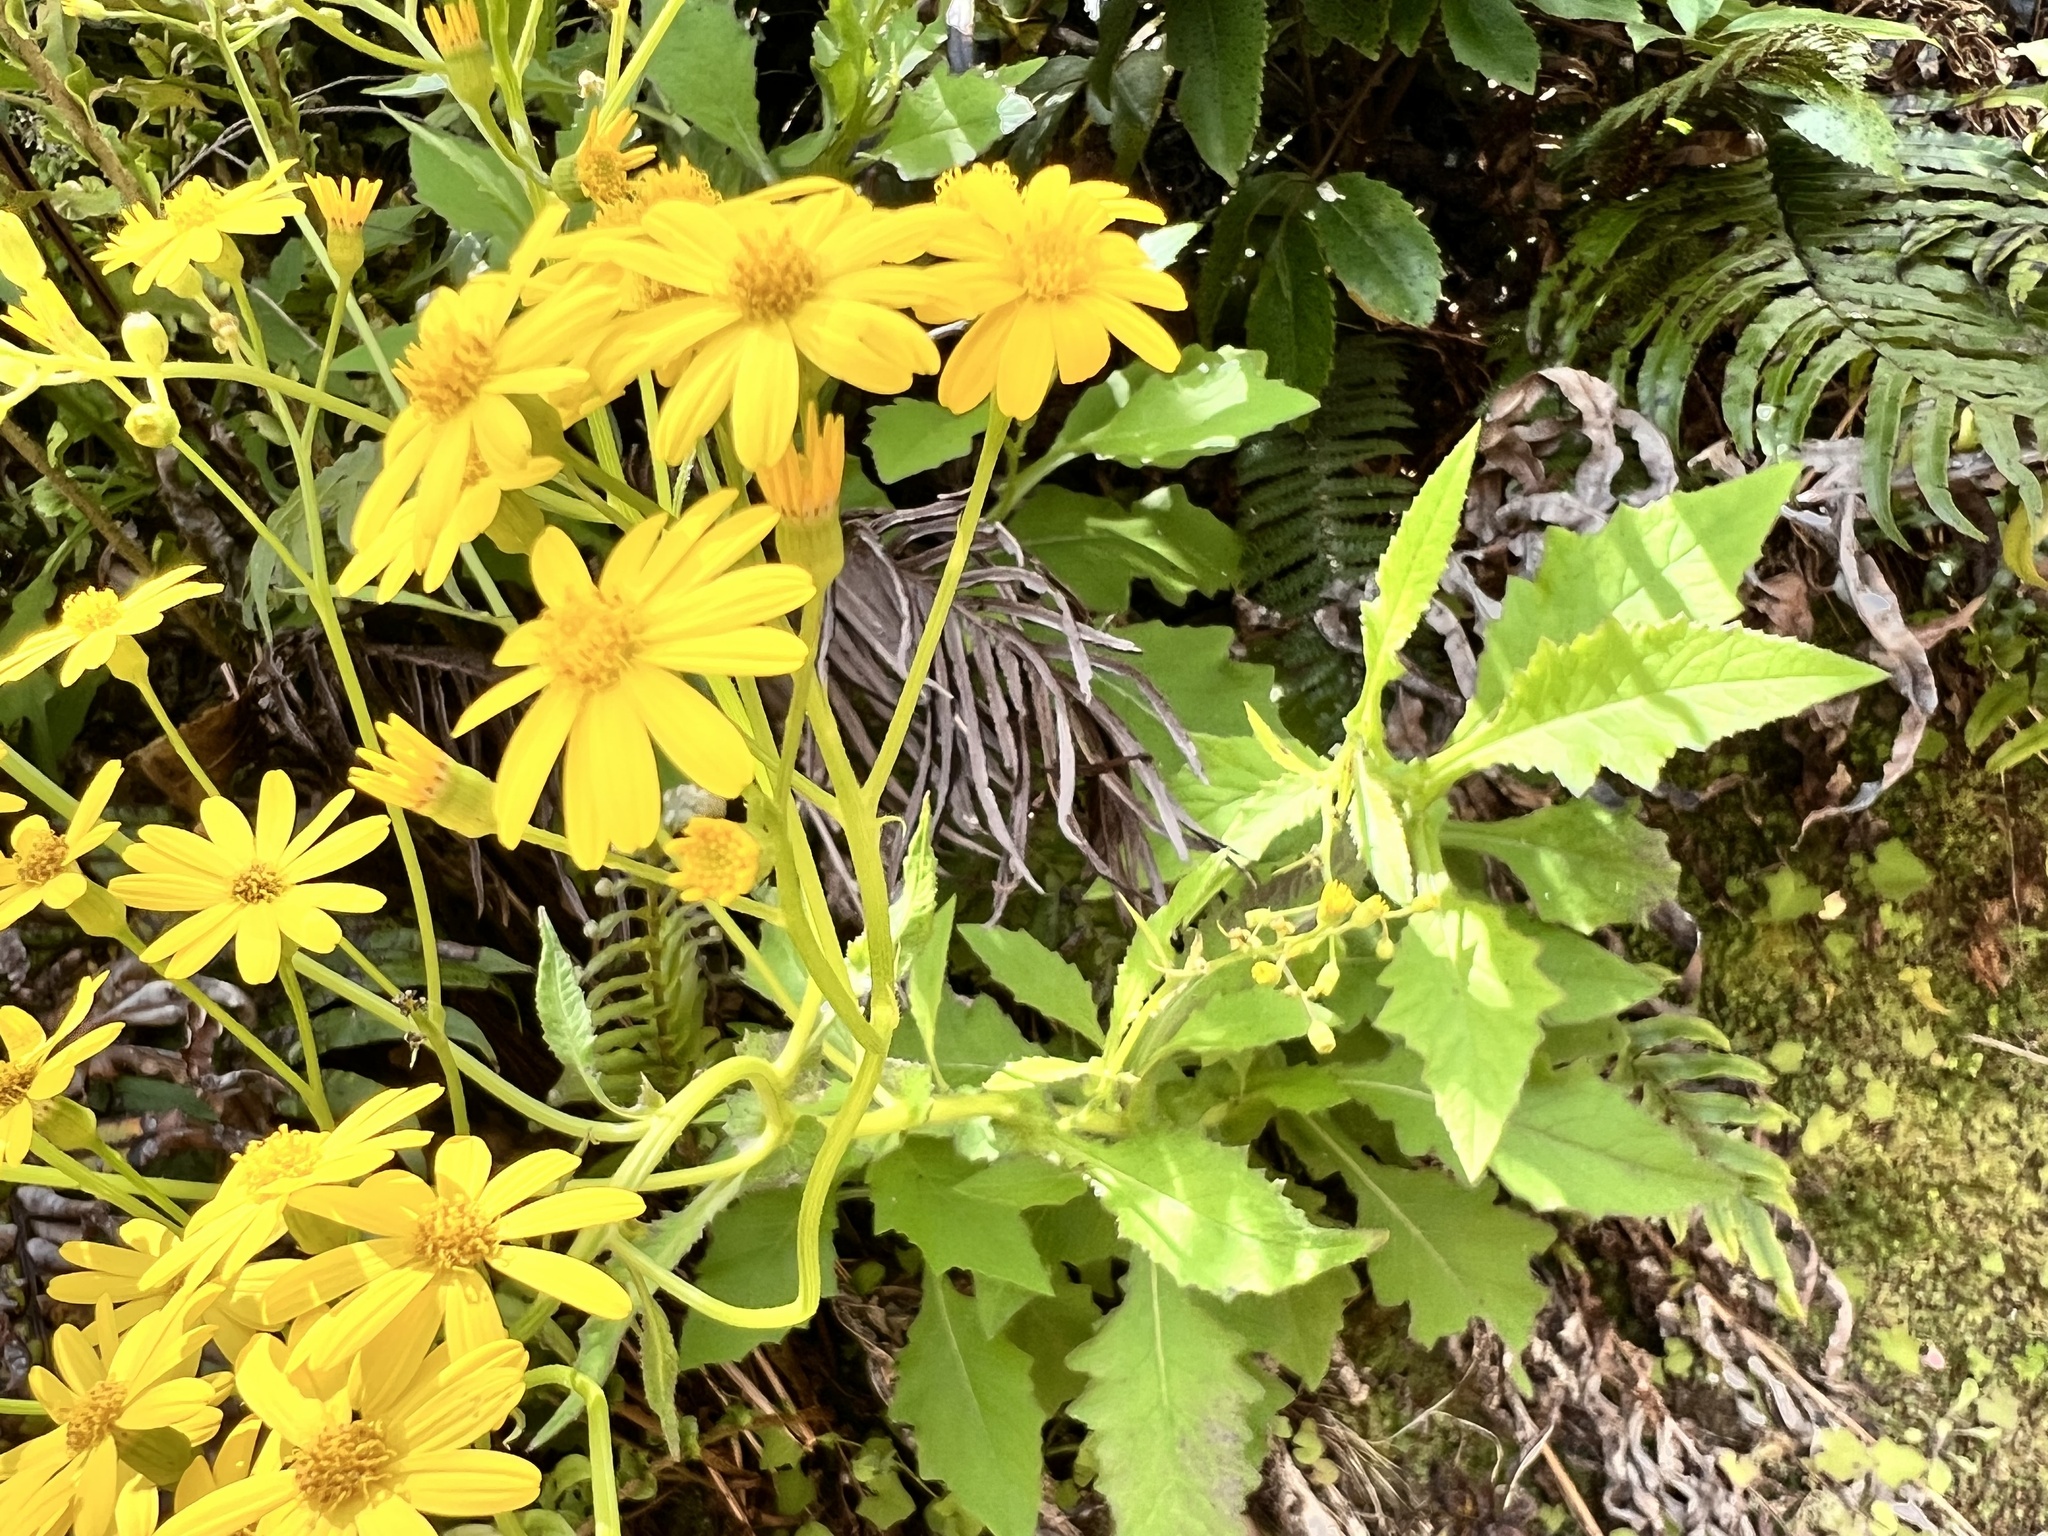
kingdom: Plantae
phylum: Tracheophyta
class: Magnoliopsida
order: Asterales
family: Asteraceae
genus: Senecio
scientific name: Senecio rufiglandulosus
